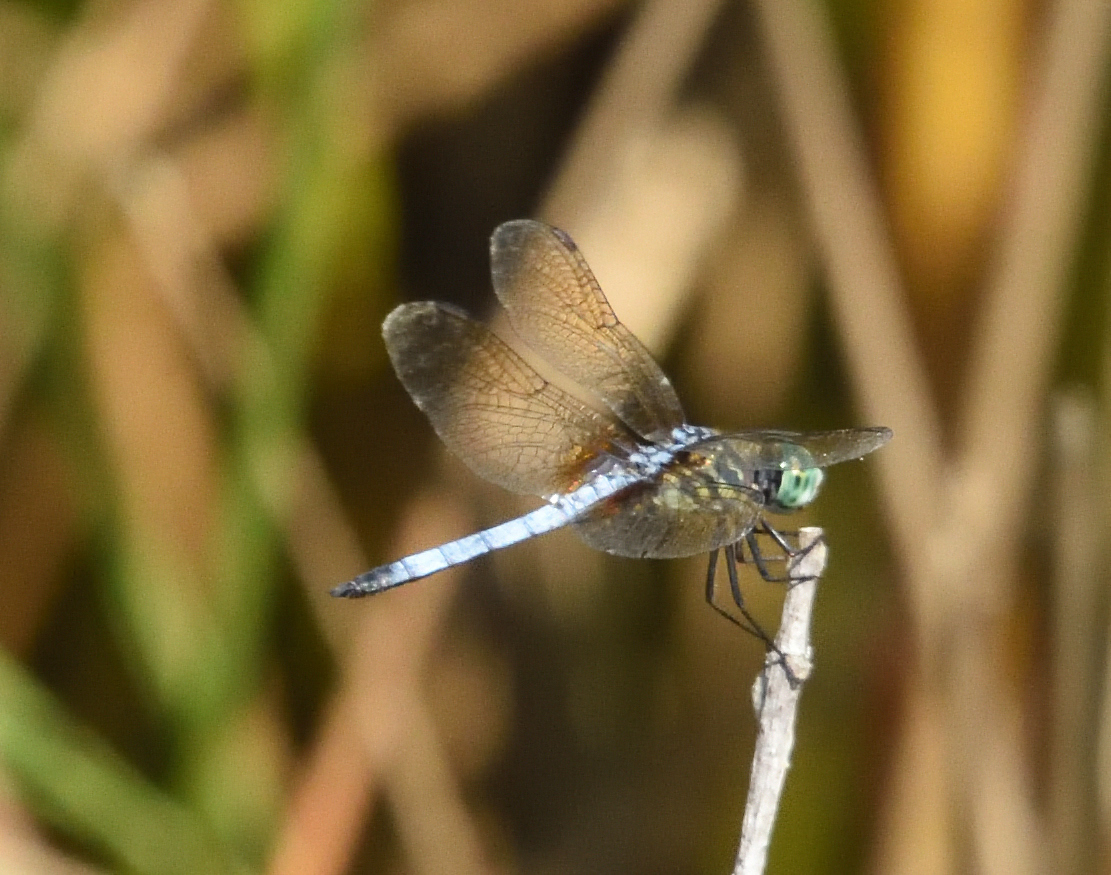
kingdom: Animalia
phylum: Arthropoda
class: Insecta
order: Odonata
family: Libellulidae
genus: Pachydiplax
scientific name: Pachydiplax longipennis
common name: Blue dasher
